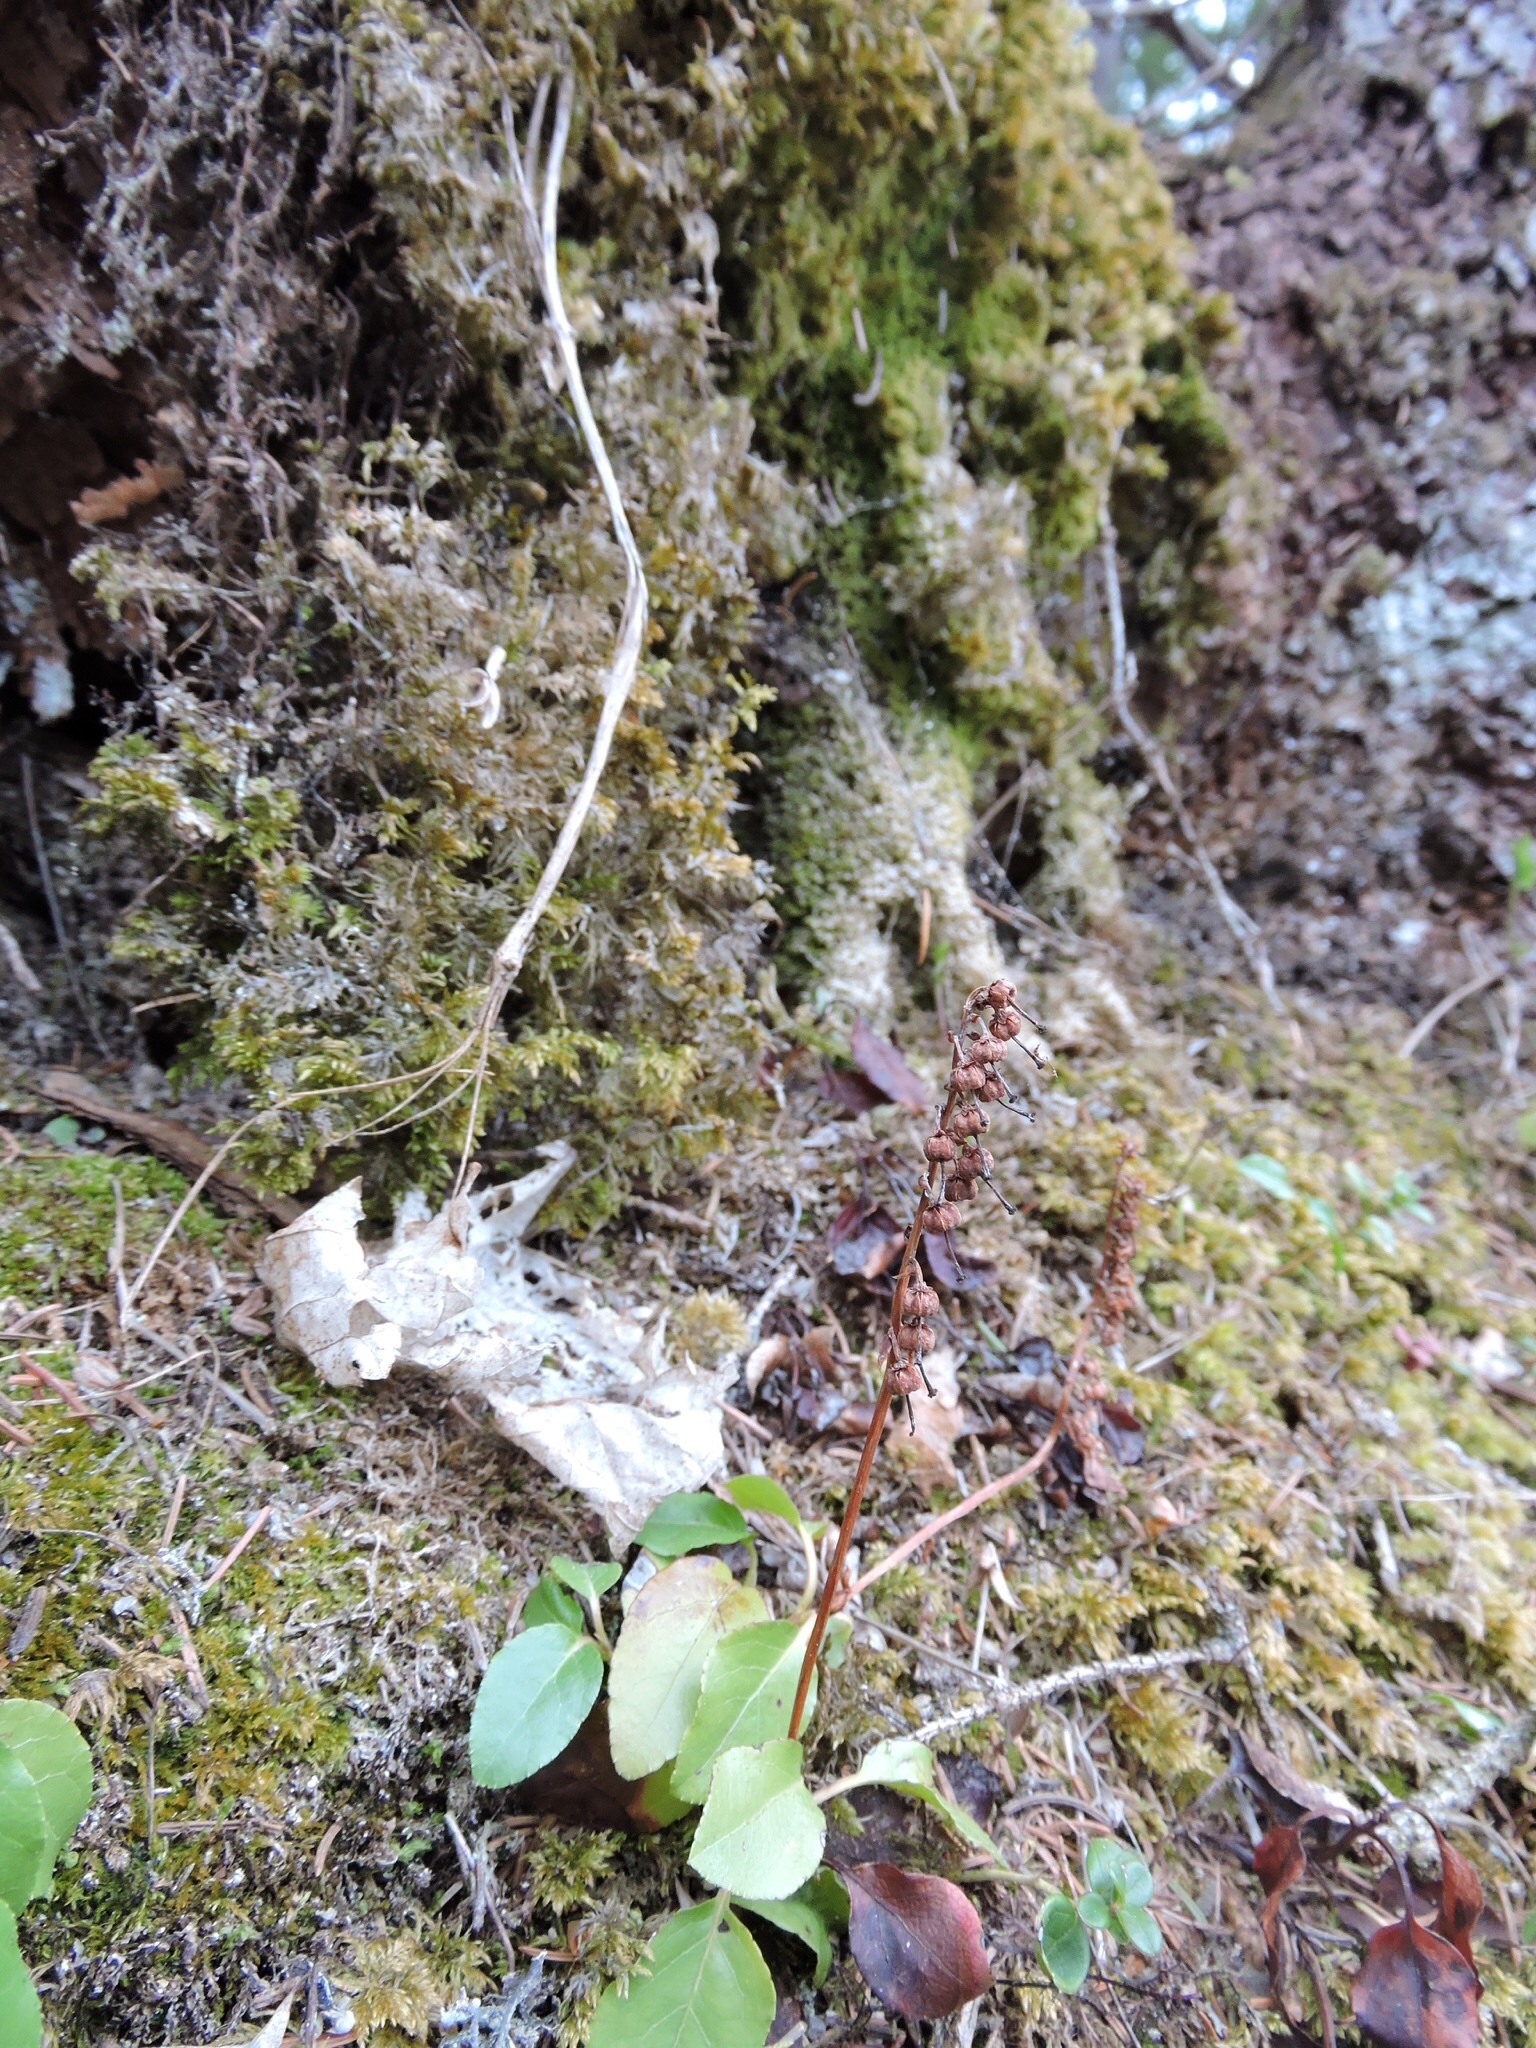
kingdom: Plantae
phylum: Tracheophyta
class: Magnoliopsida
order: Ericales
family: Ericaceae
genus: Orthilia
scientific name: Orthilia secunda
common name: One-sided orthilia
